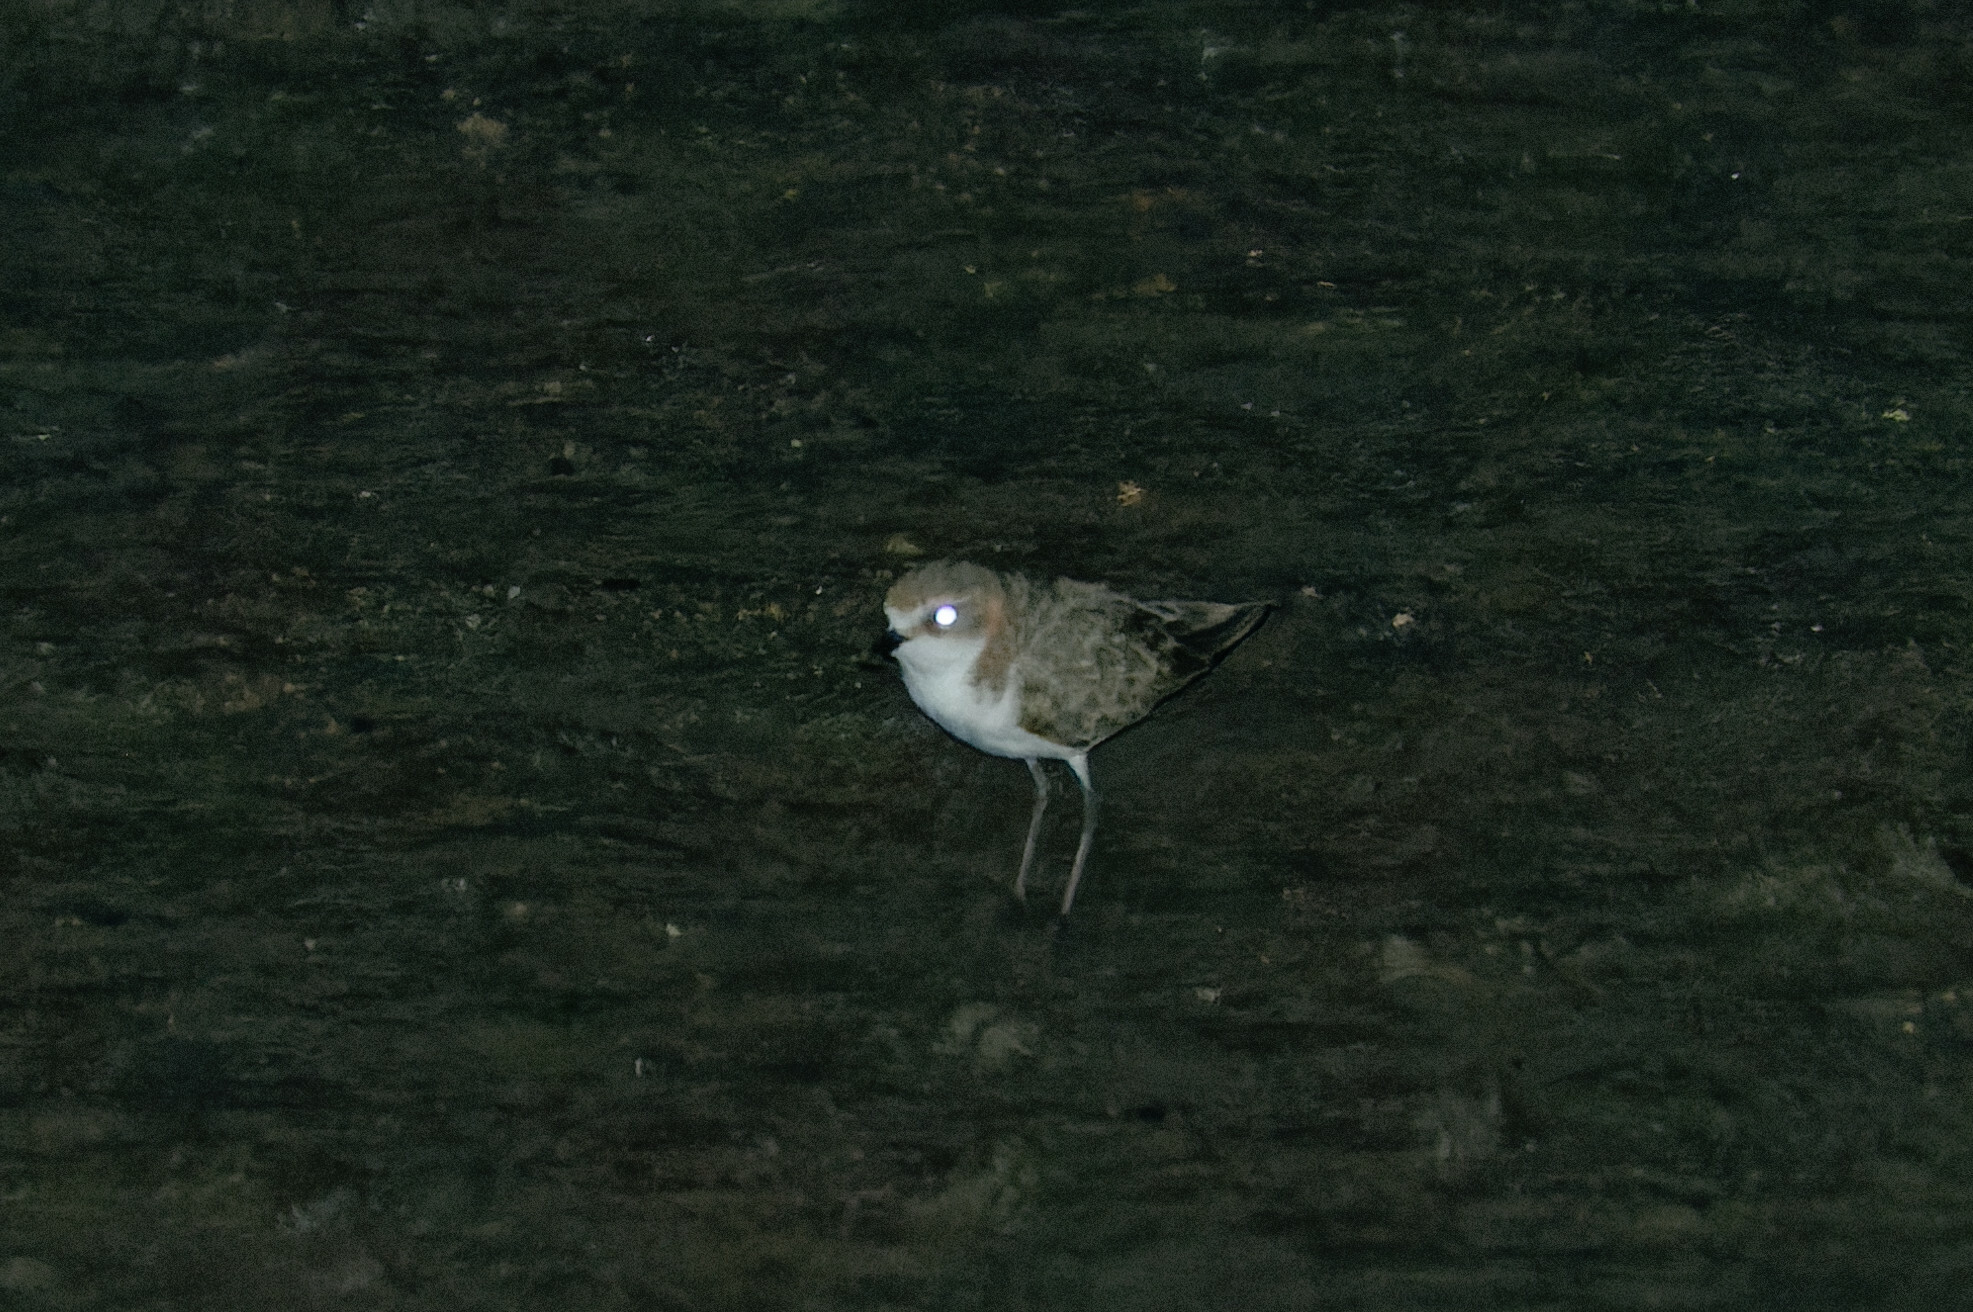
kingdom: Animalia
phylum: Chordata
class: Aves
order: Charadriiformes
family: Charadriidae
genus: Anarhynchus
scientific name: Anarhynchus
